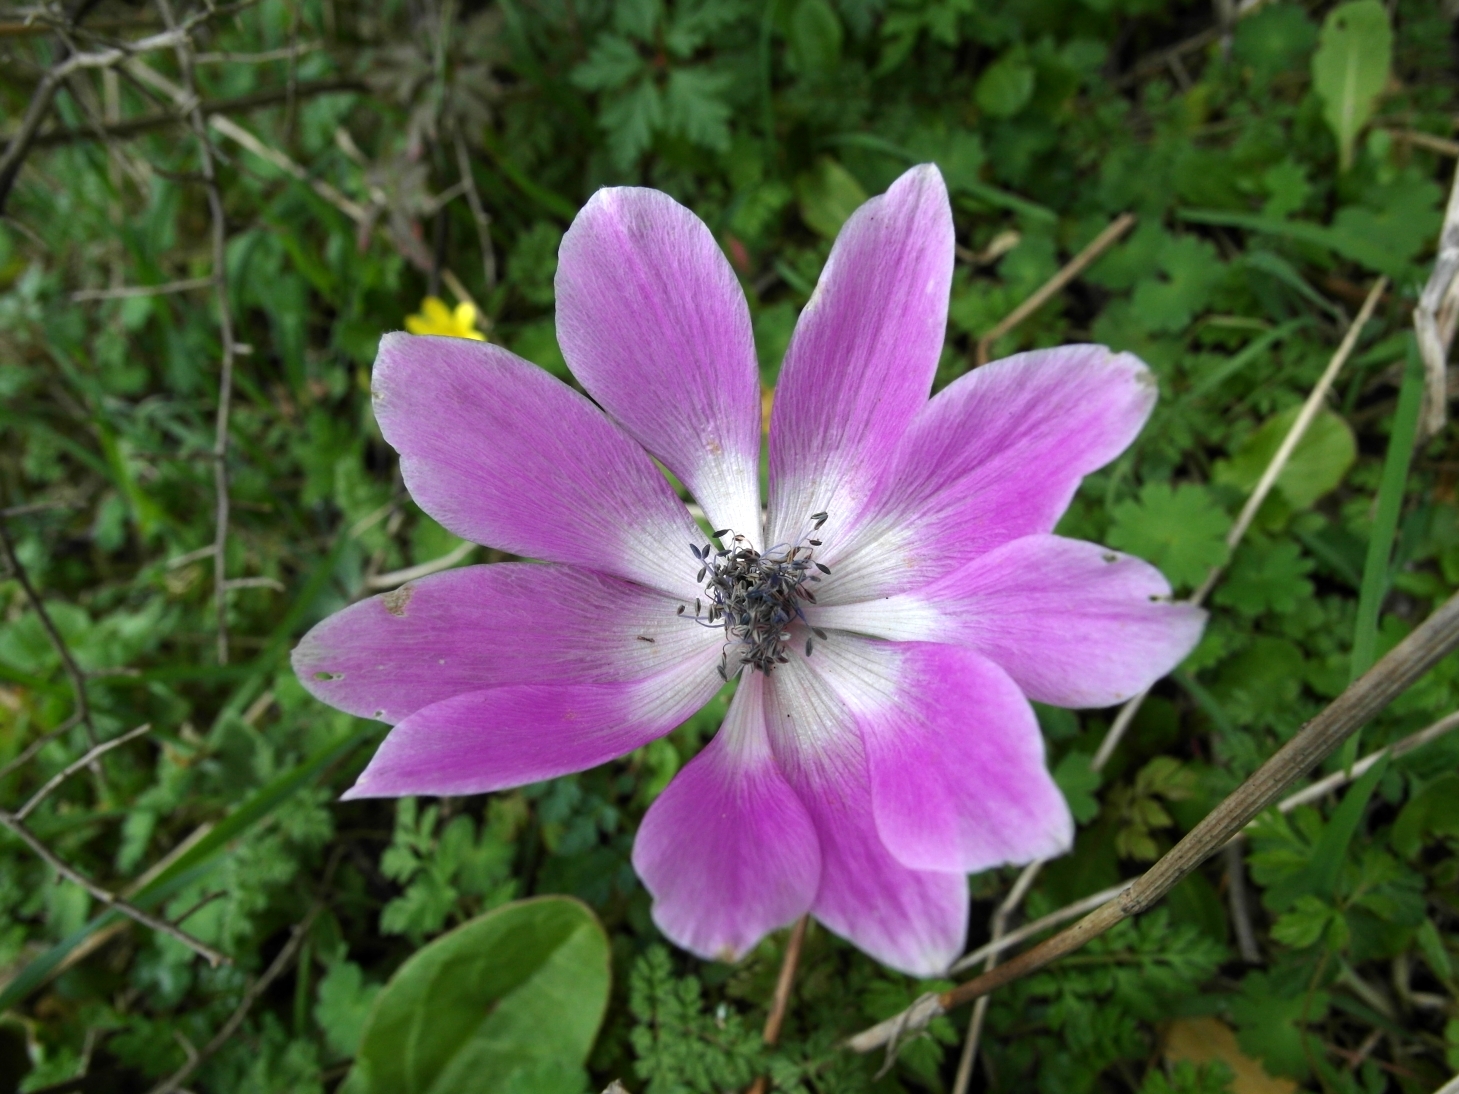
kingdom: Plantae
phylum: Tracheophyta
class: Magnoliopsida
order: Ranunculales
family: Ranunculaceae
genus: Anemone
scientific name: Anemone pavonina
